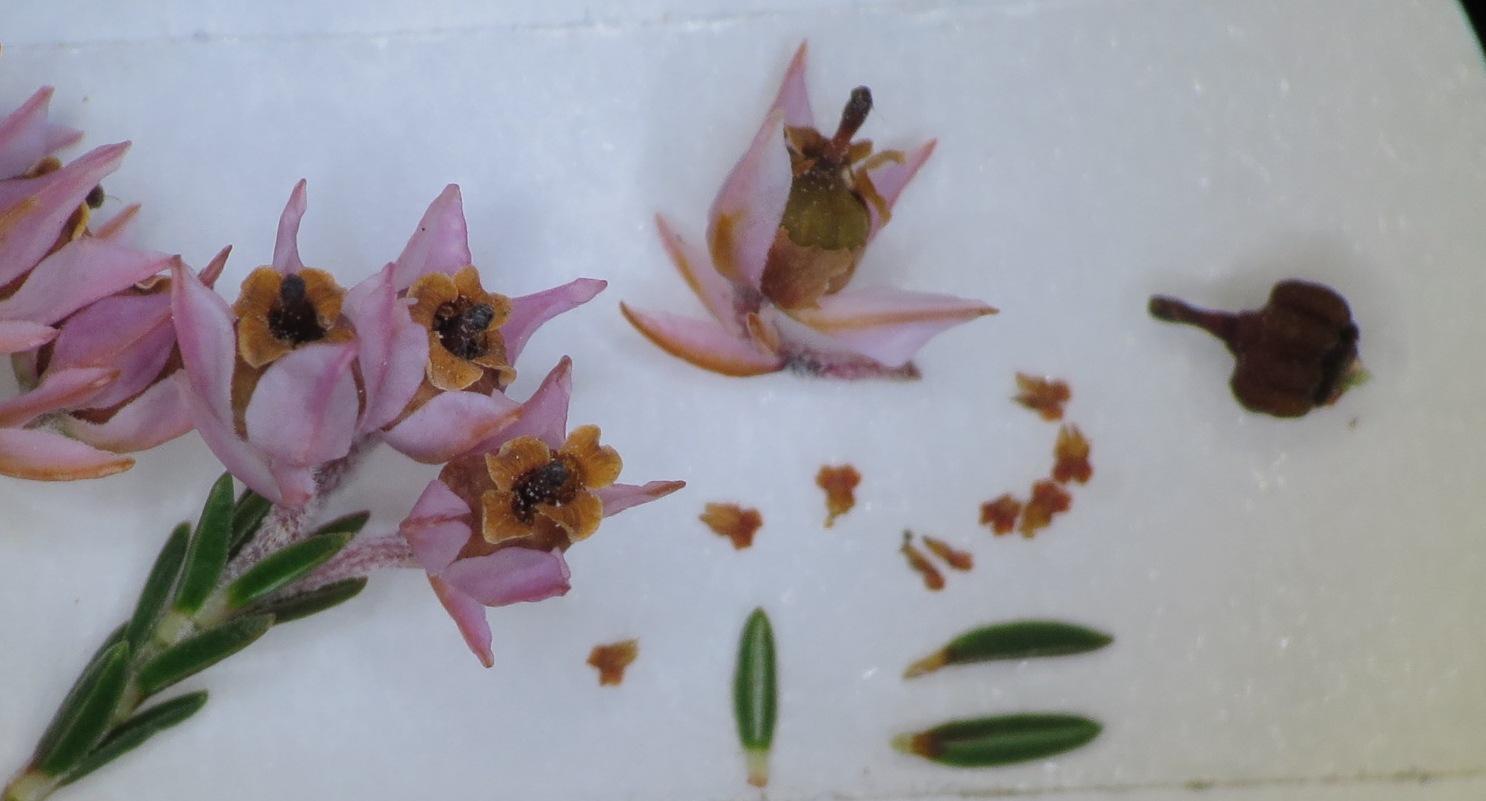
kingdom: Plantae
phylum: Tracheophyta
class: Magnoliopsida
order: Ericales
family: Ericaceae
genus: Erica
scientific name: Erica plumigera
